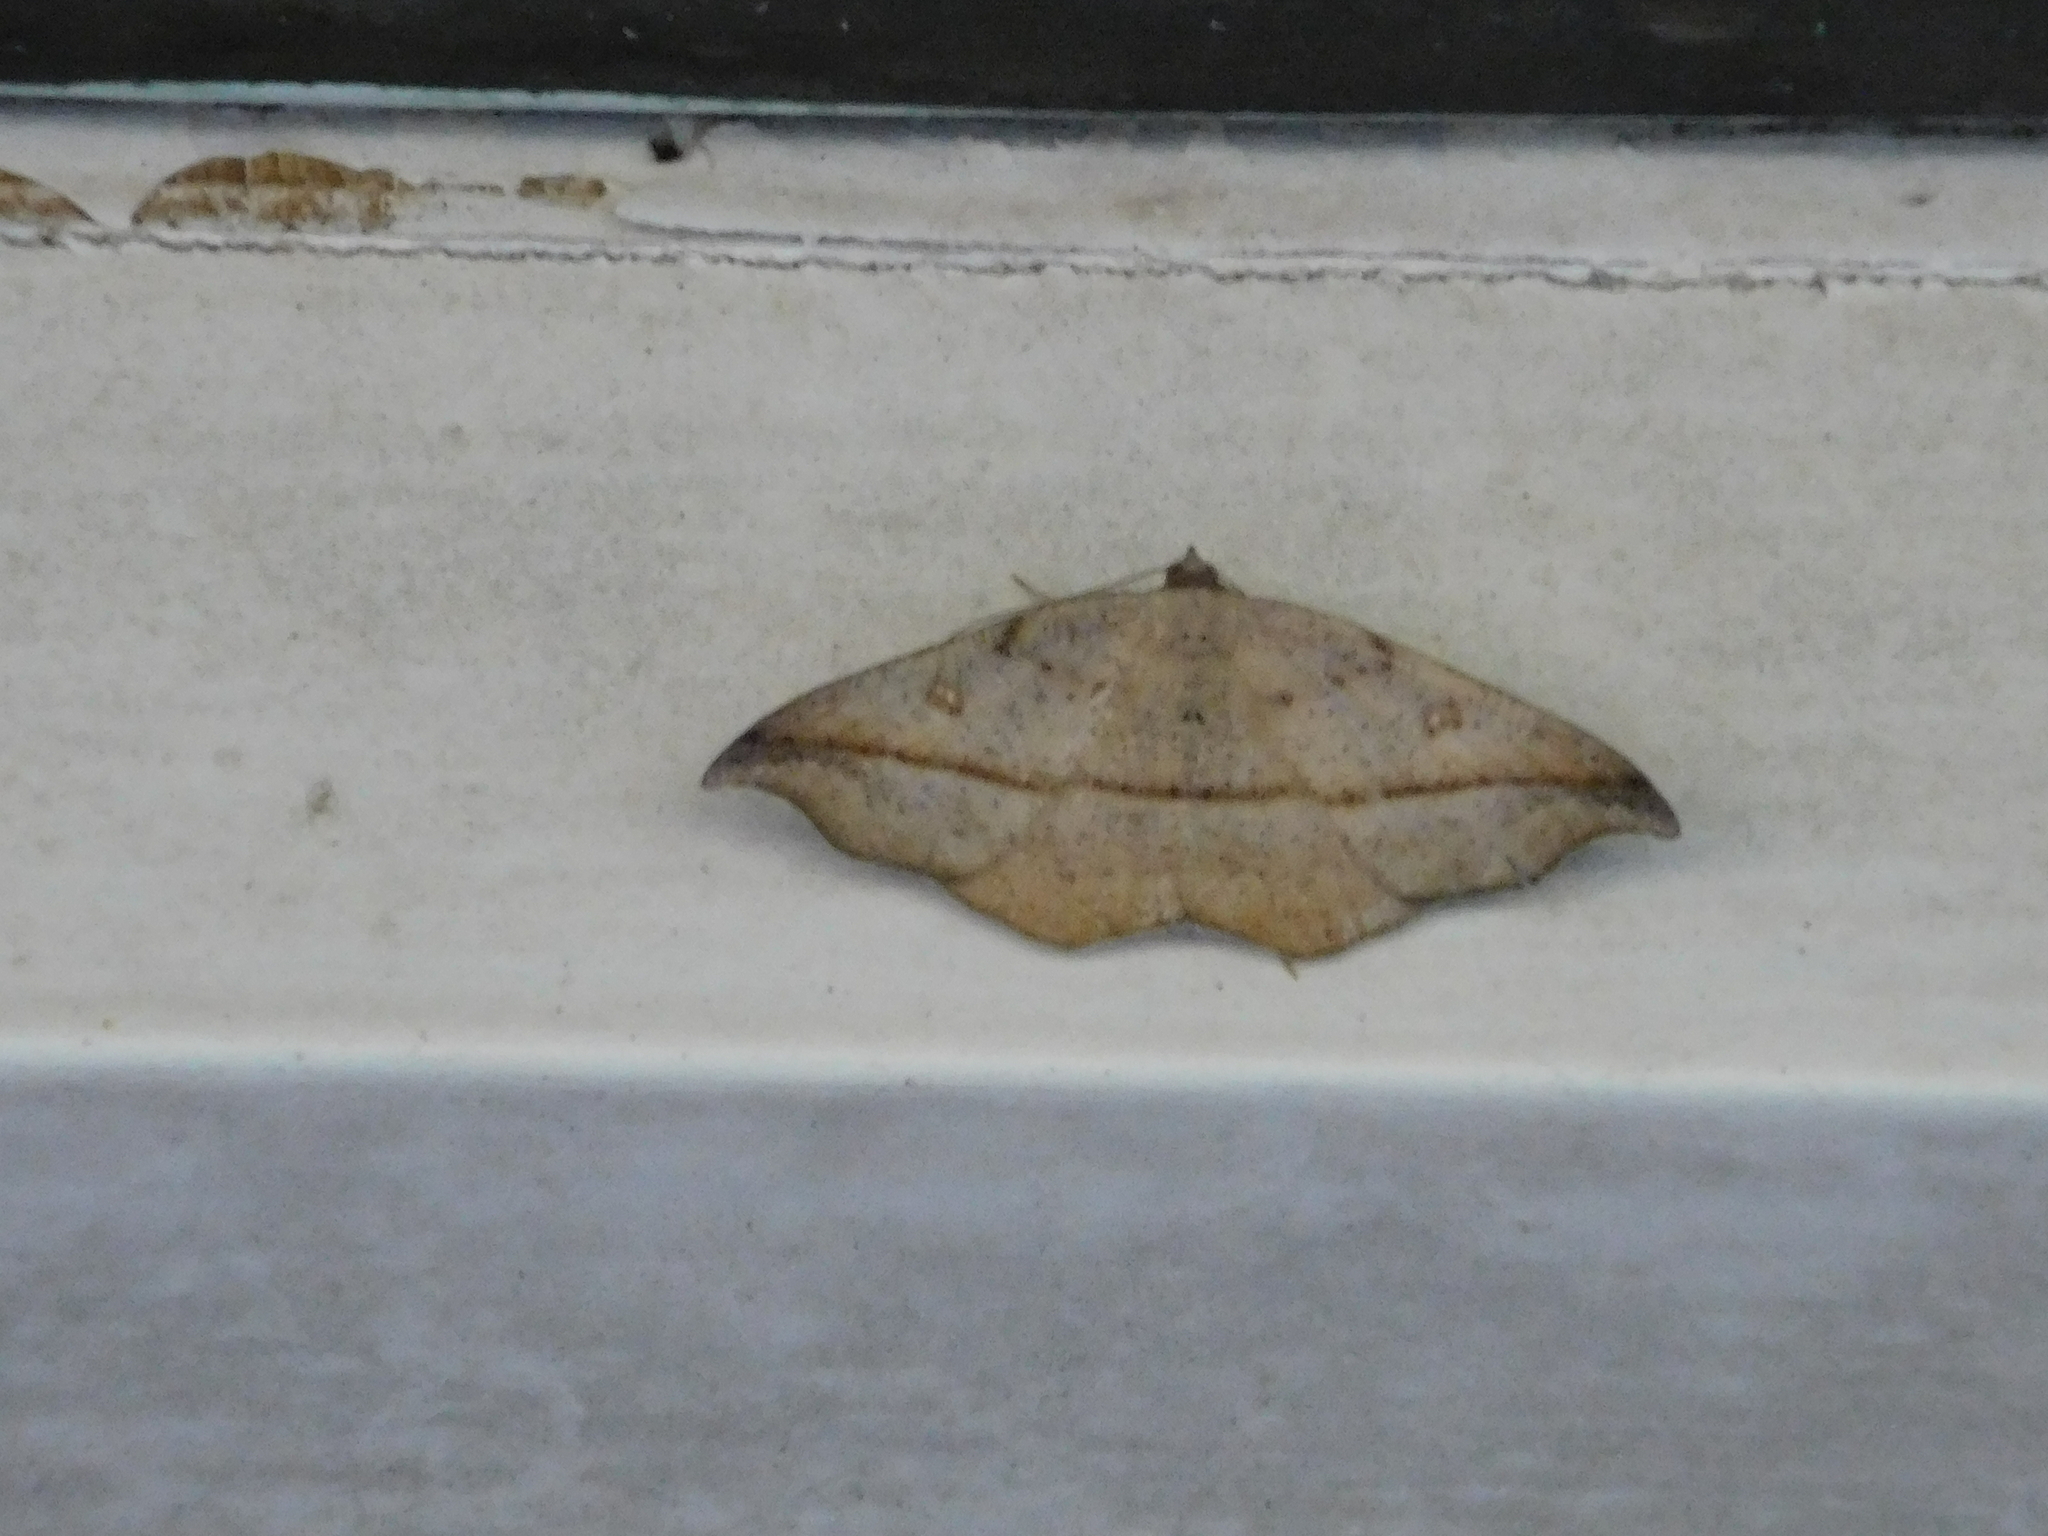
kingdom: Animalia
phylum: Arthropoda
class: Insecta
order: Lepidoptera
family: Geometridae
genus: Sarisa
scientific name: Sarisa muriferata
